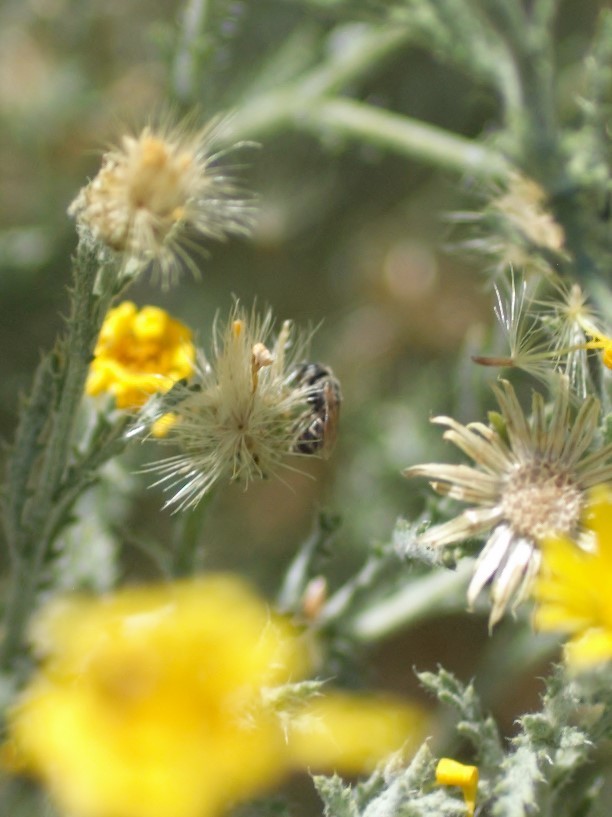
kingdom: Animalia
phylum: Arthropoda
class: Insecta
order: Hymenoptera
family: Halictidae
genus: Halictus
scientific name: Halictus tripartitus
